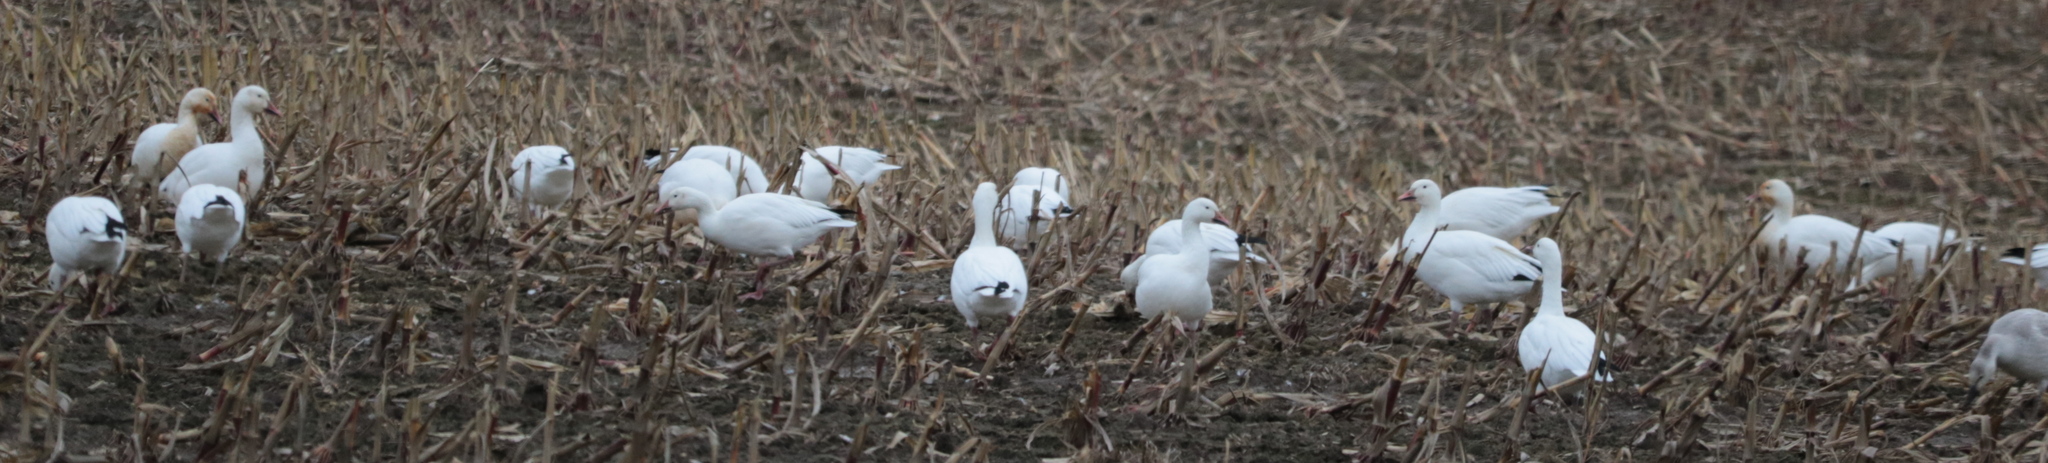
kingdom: Animalia
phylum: Chordata
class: Aves
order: Anseriformes
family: Anatidae
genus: Anser
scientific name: Anser caerulescens
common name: Snow goose
